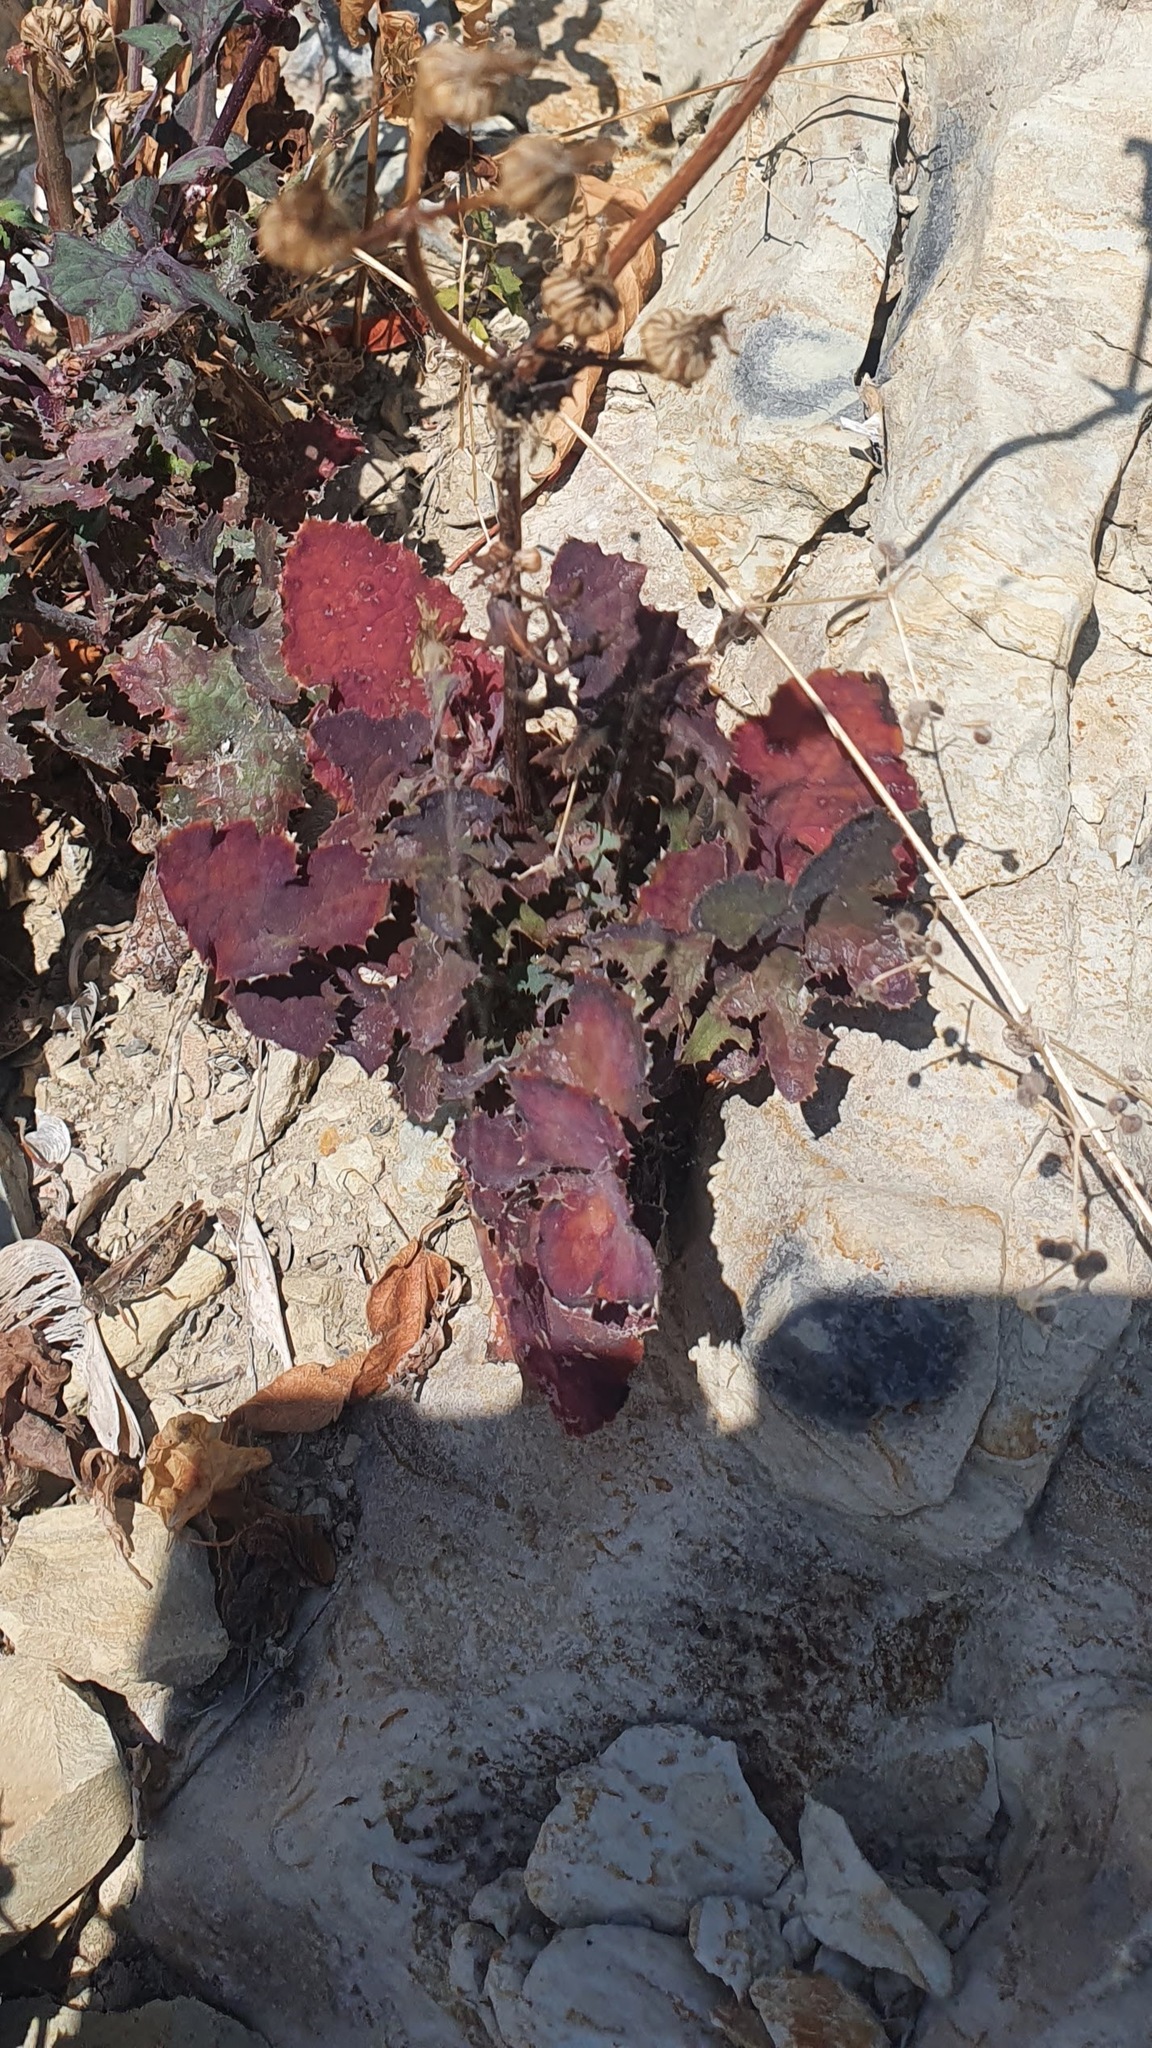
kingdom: Plantae
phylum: Tracheophyta
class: Magnoliopsida
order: Asterales
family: Asteraceae
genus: Sonchus
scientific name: Sonchus oleraceus
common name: Common sowthistle
